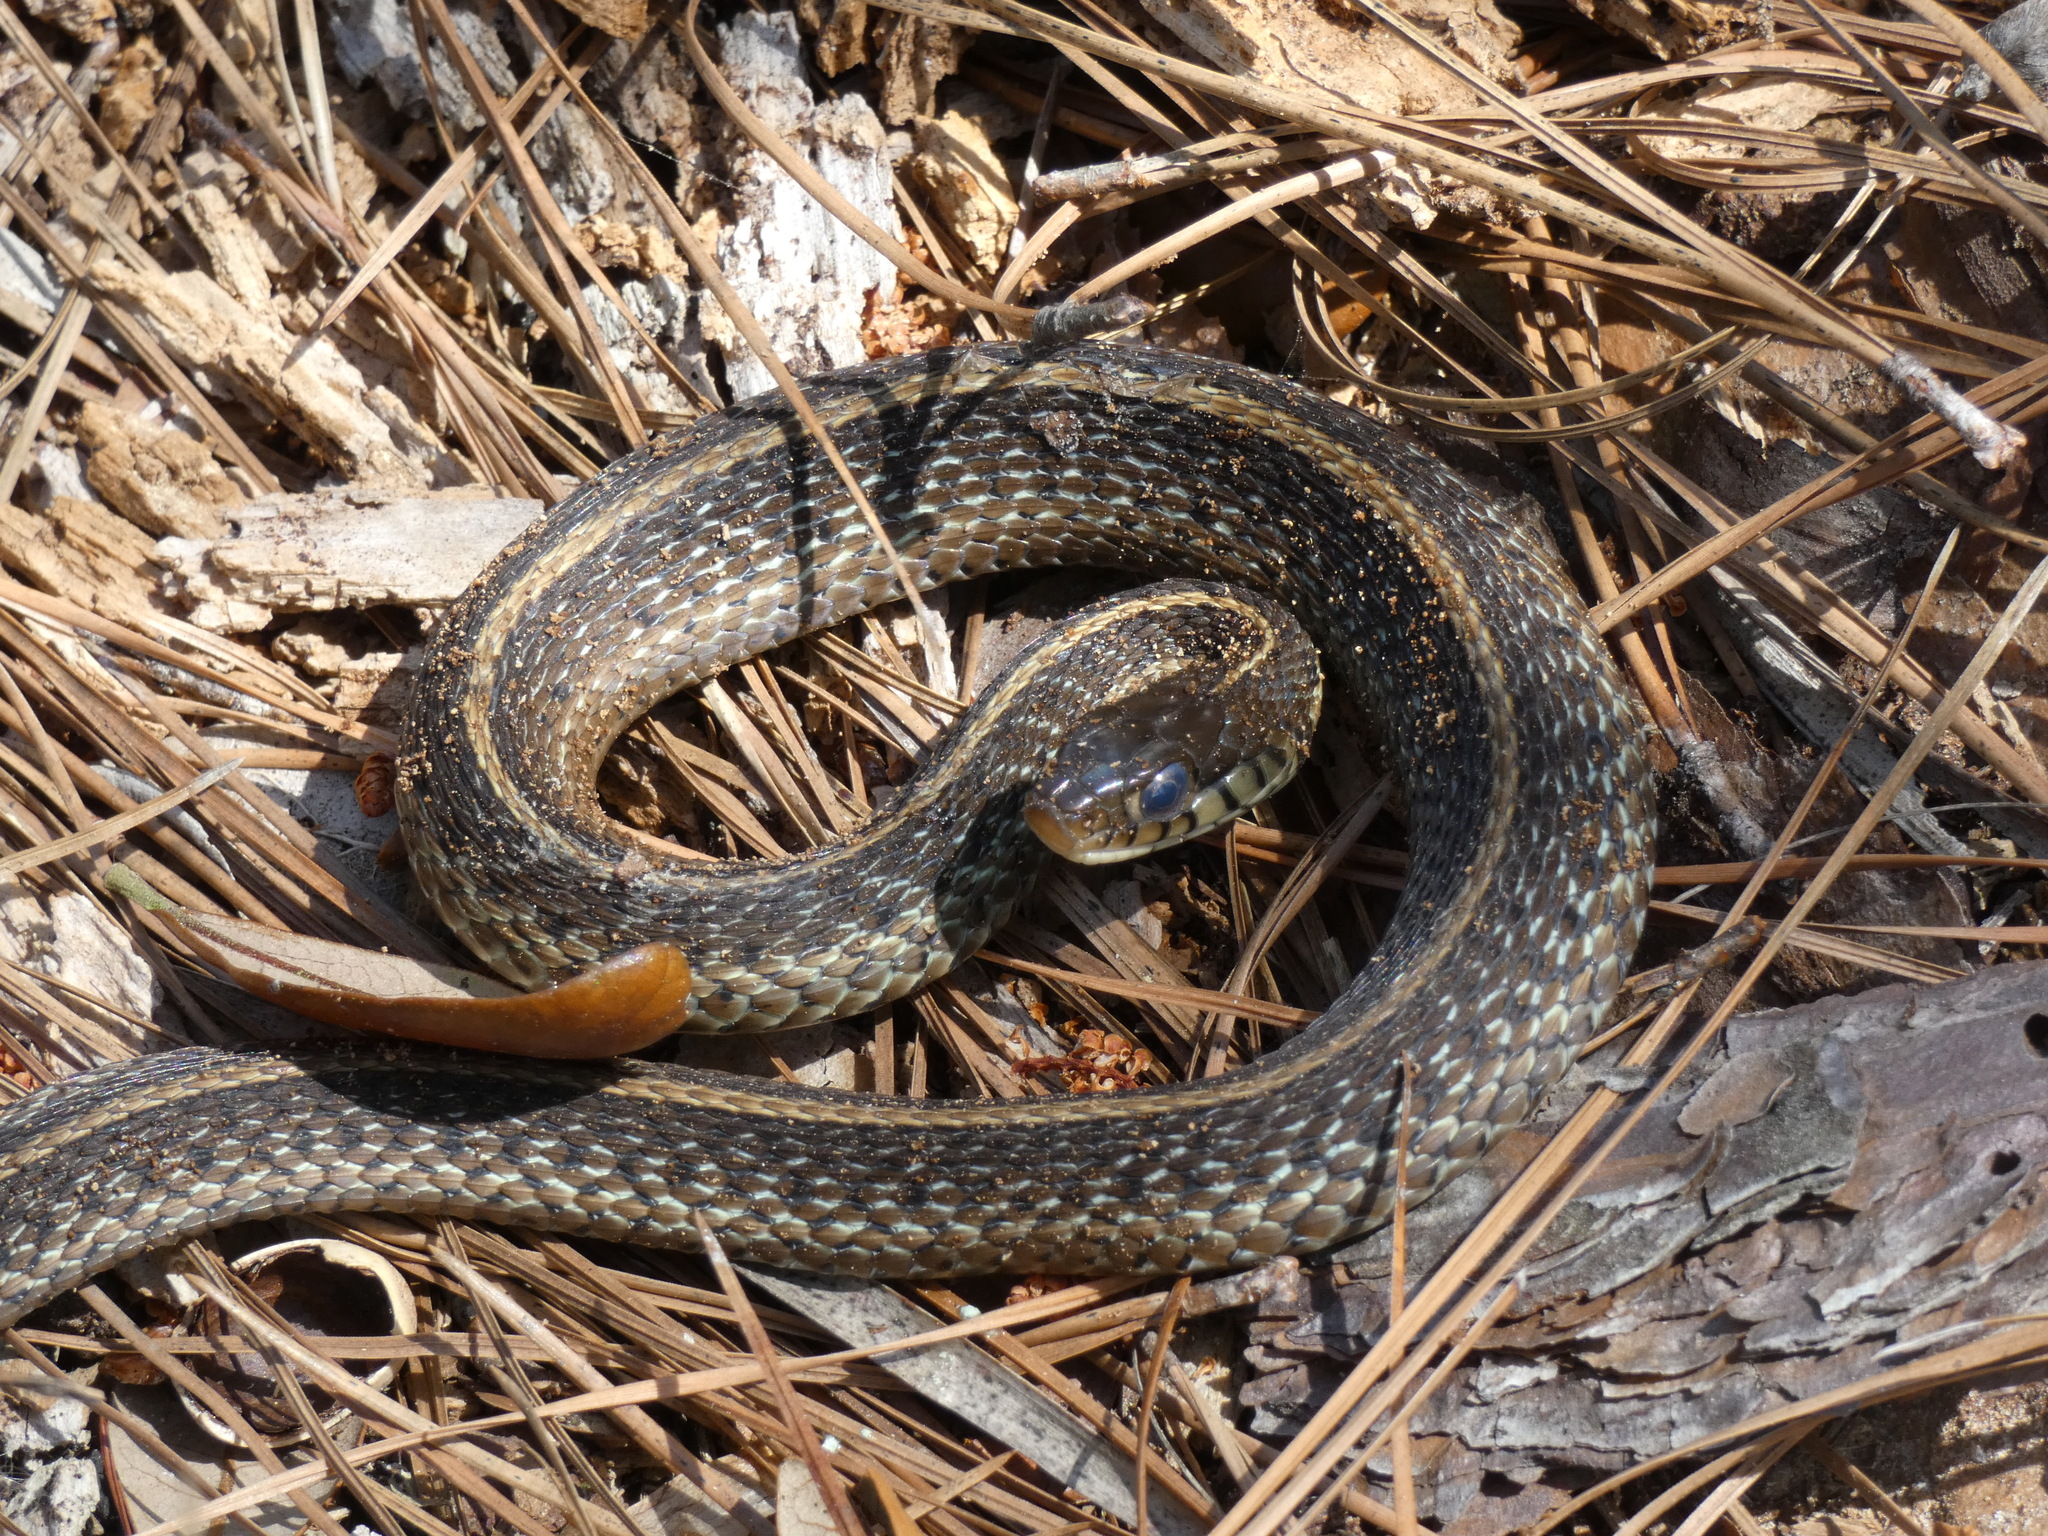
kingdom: Animalia
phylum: Chordata
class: Squamata
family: Colubridae
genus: Thamnophis
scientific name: Thamnophis sirtalis
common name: Common garter snake
